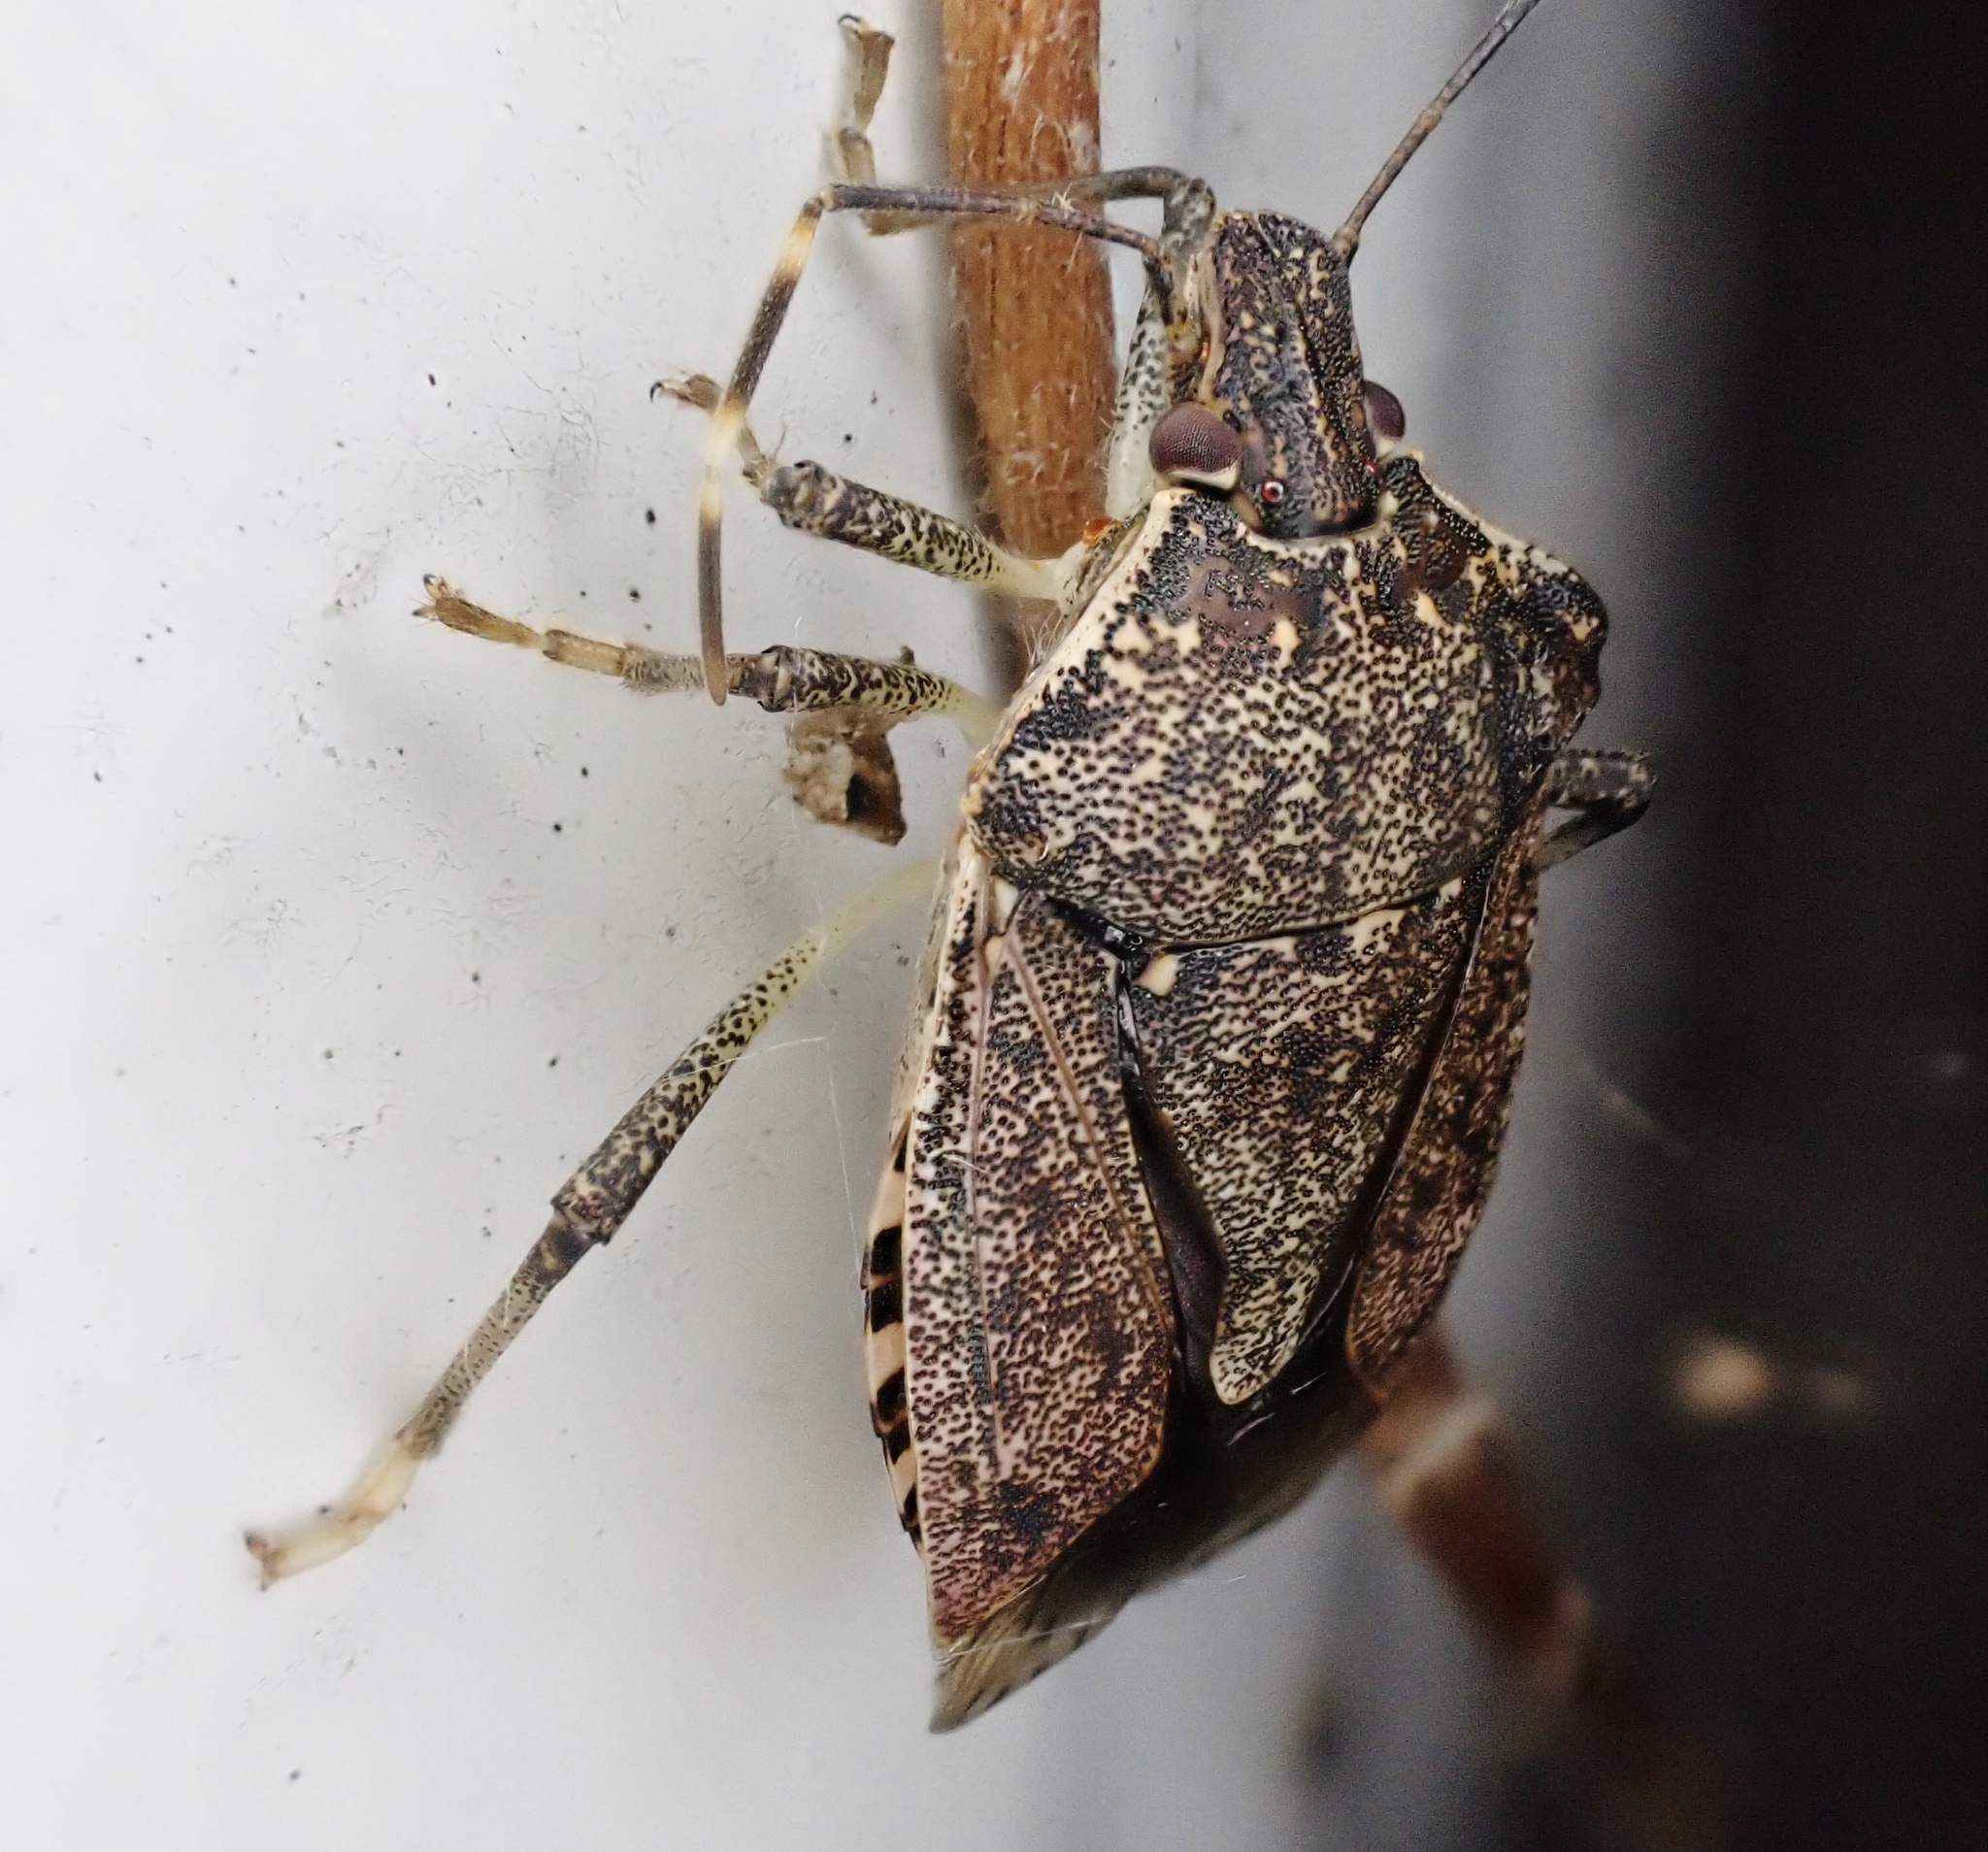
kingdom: Animalia
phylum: Arthropoda
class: Insecta
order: Hemiptera
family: Pentatomidae
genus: Halyomorpha
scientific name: Halyomorpha halys
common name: Brown marmorated stink bug
